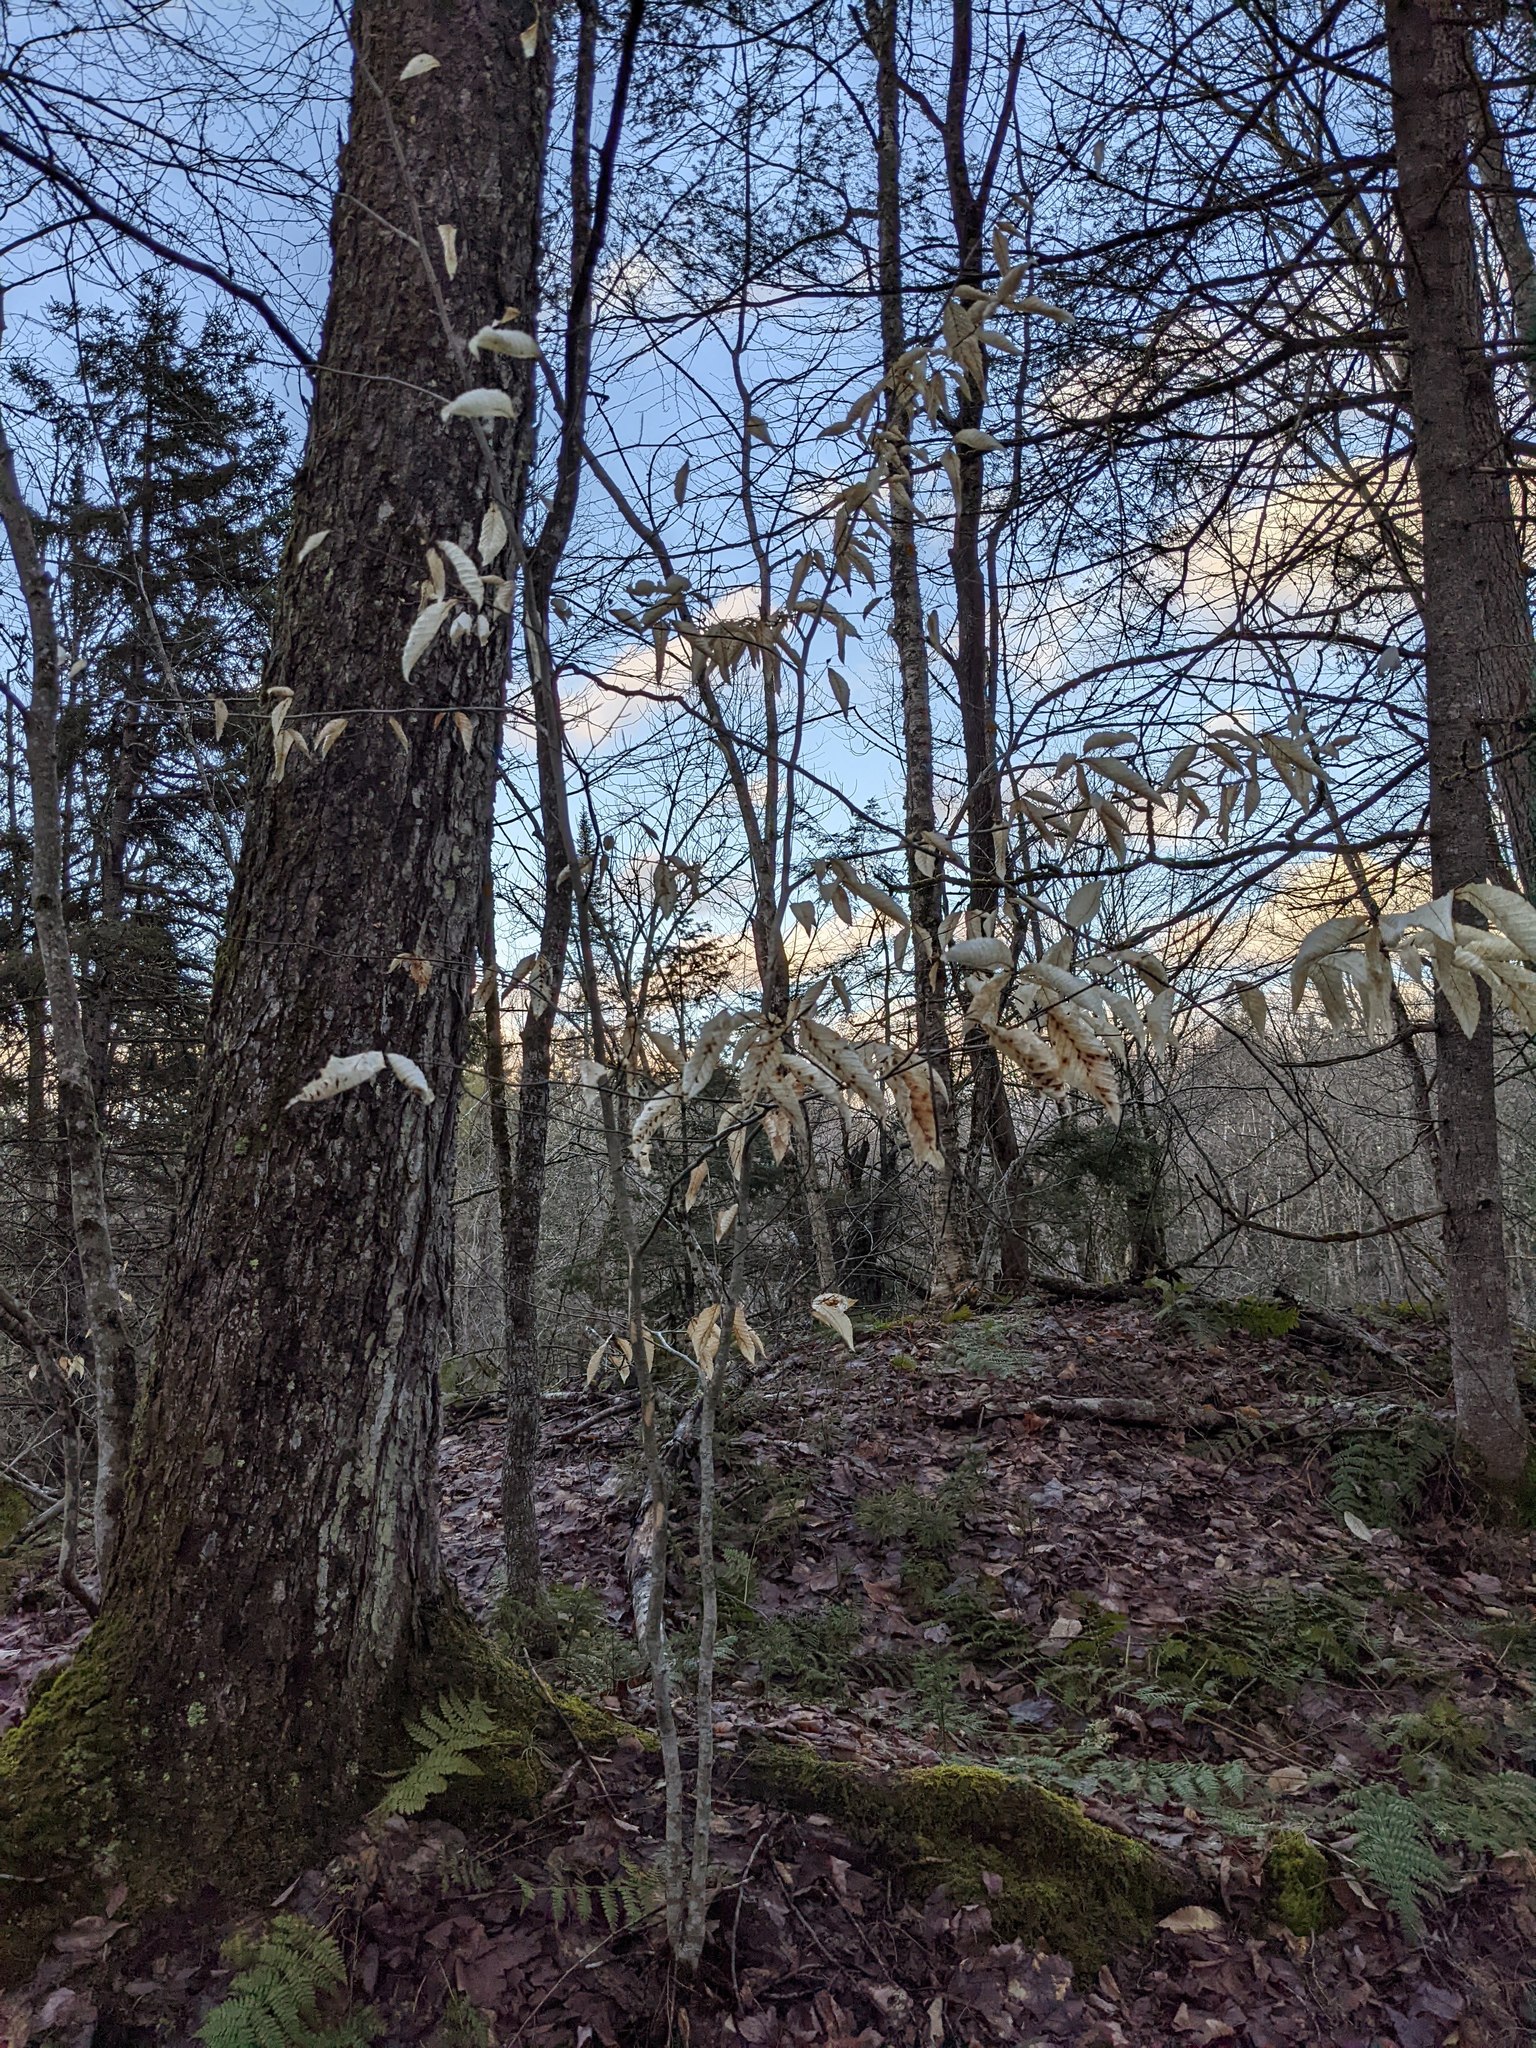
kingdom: Plantae
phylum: Tracheophyta
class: Magnoliopsida
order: Fagales
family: Fagaceae
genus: Fagus
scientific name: Fagus grandifolia
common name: American beech
